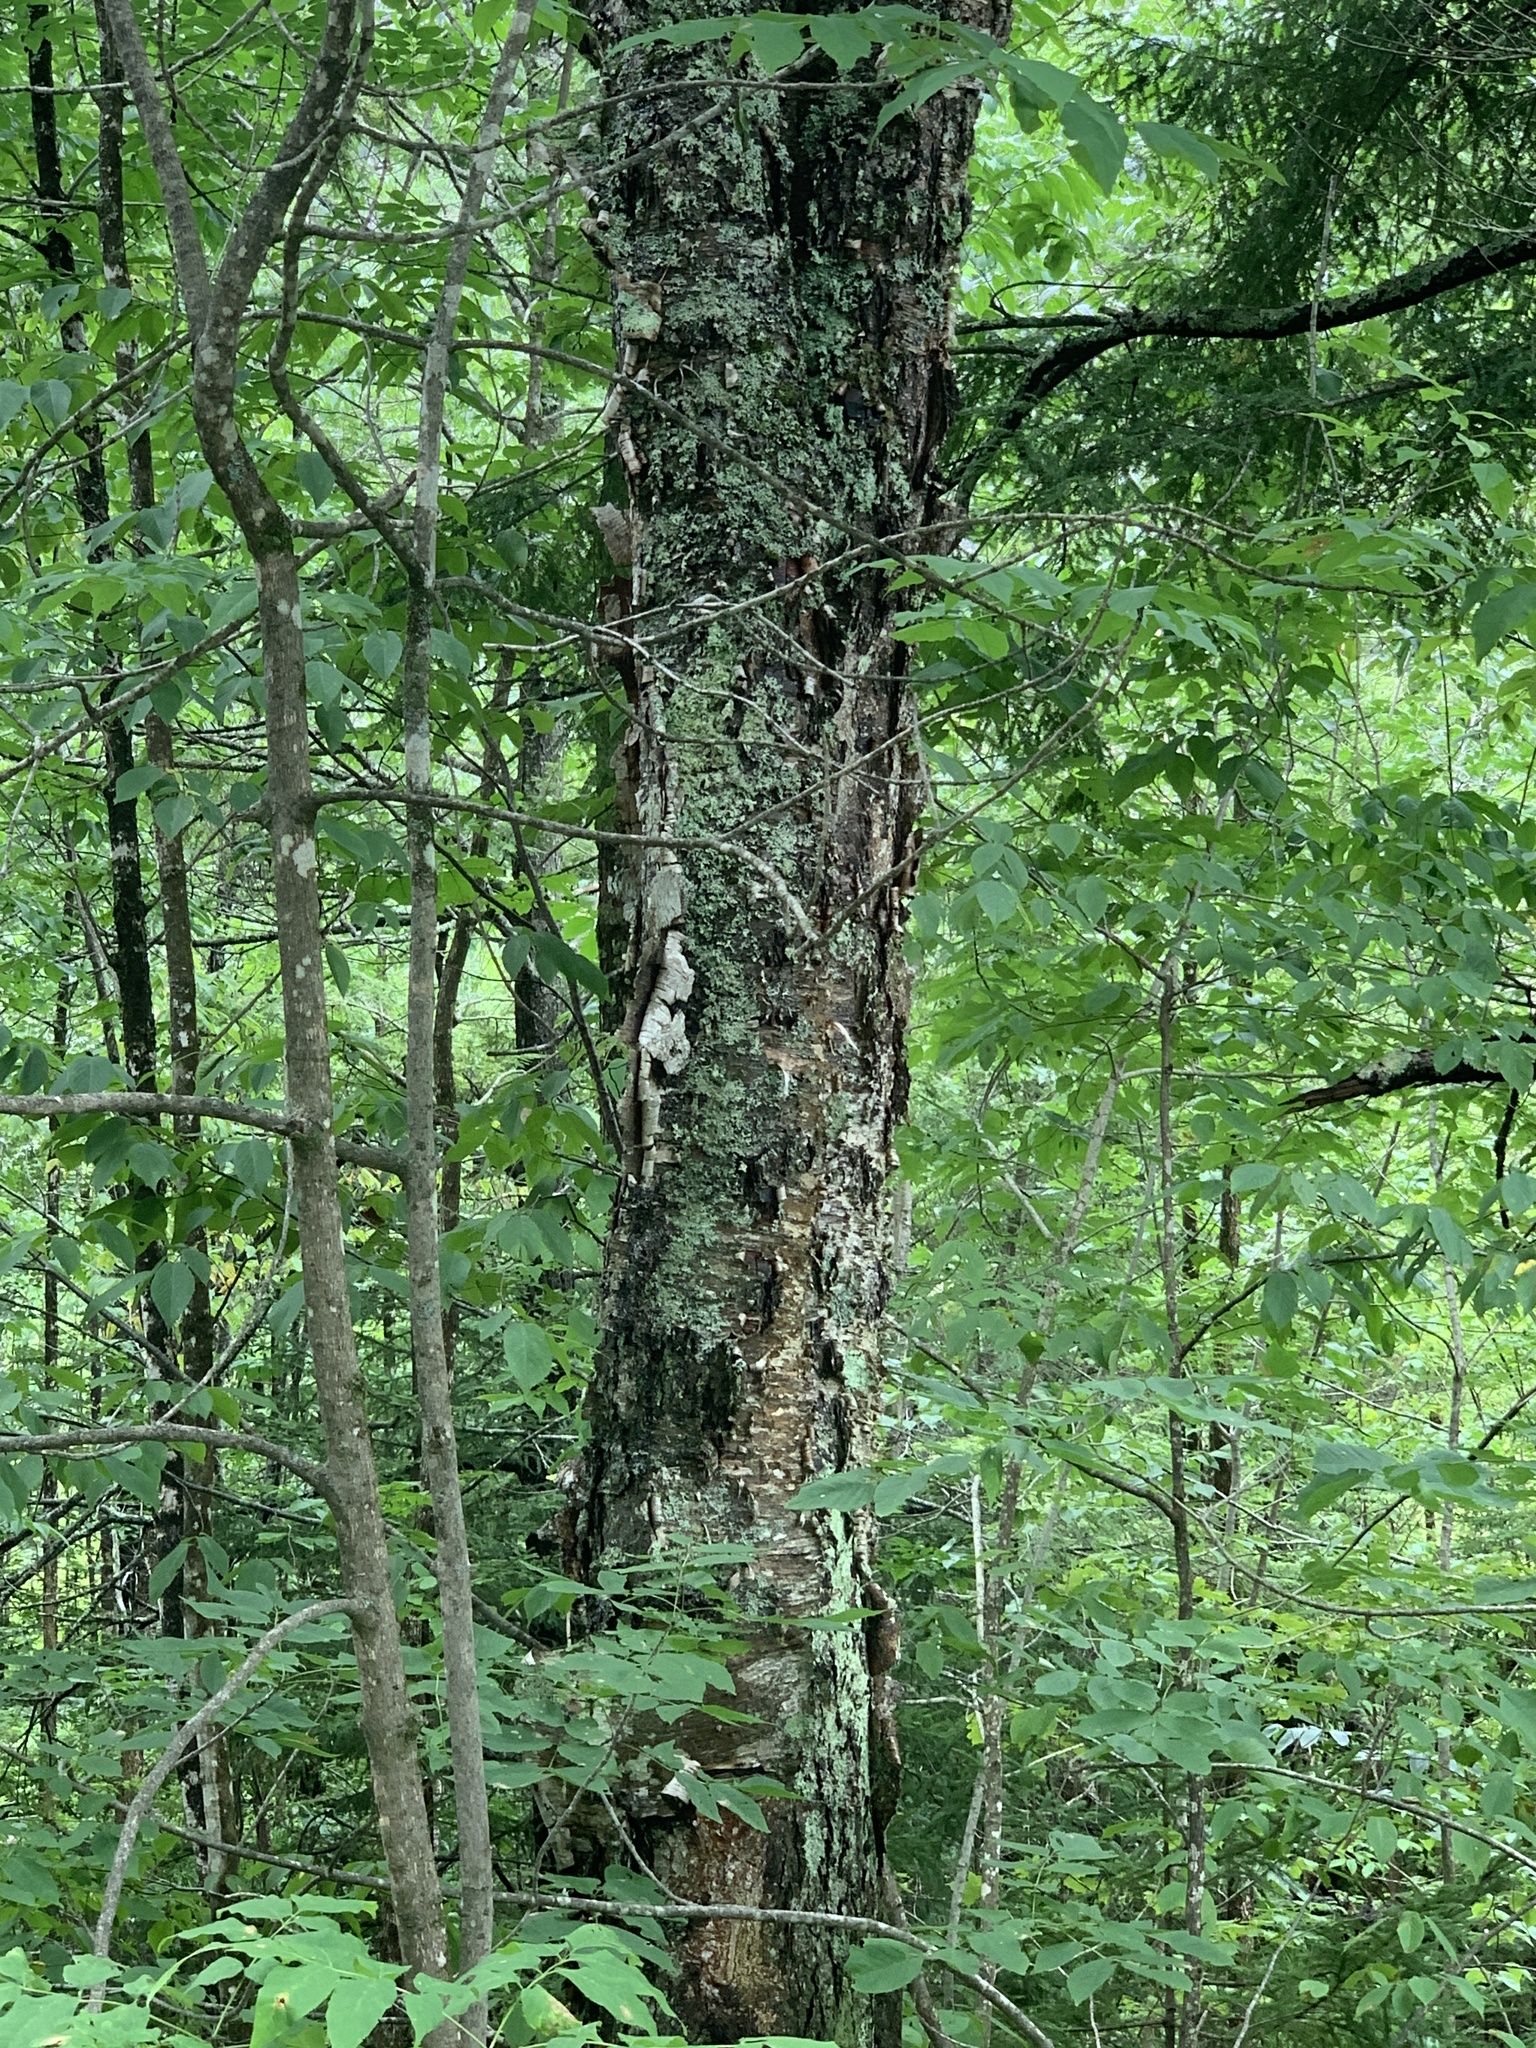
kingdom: Plantae
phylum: Tracheophyta
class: Magnoliopsida
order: Fagales
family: Betulaceae
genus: Betula
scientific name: Betula alleghaniensis
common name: Yellow birch
